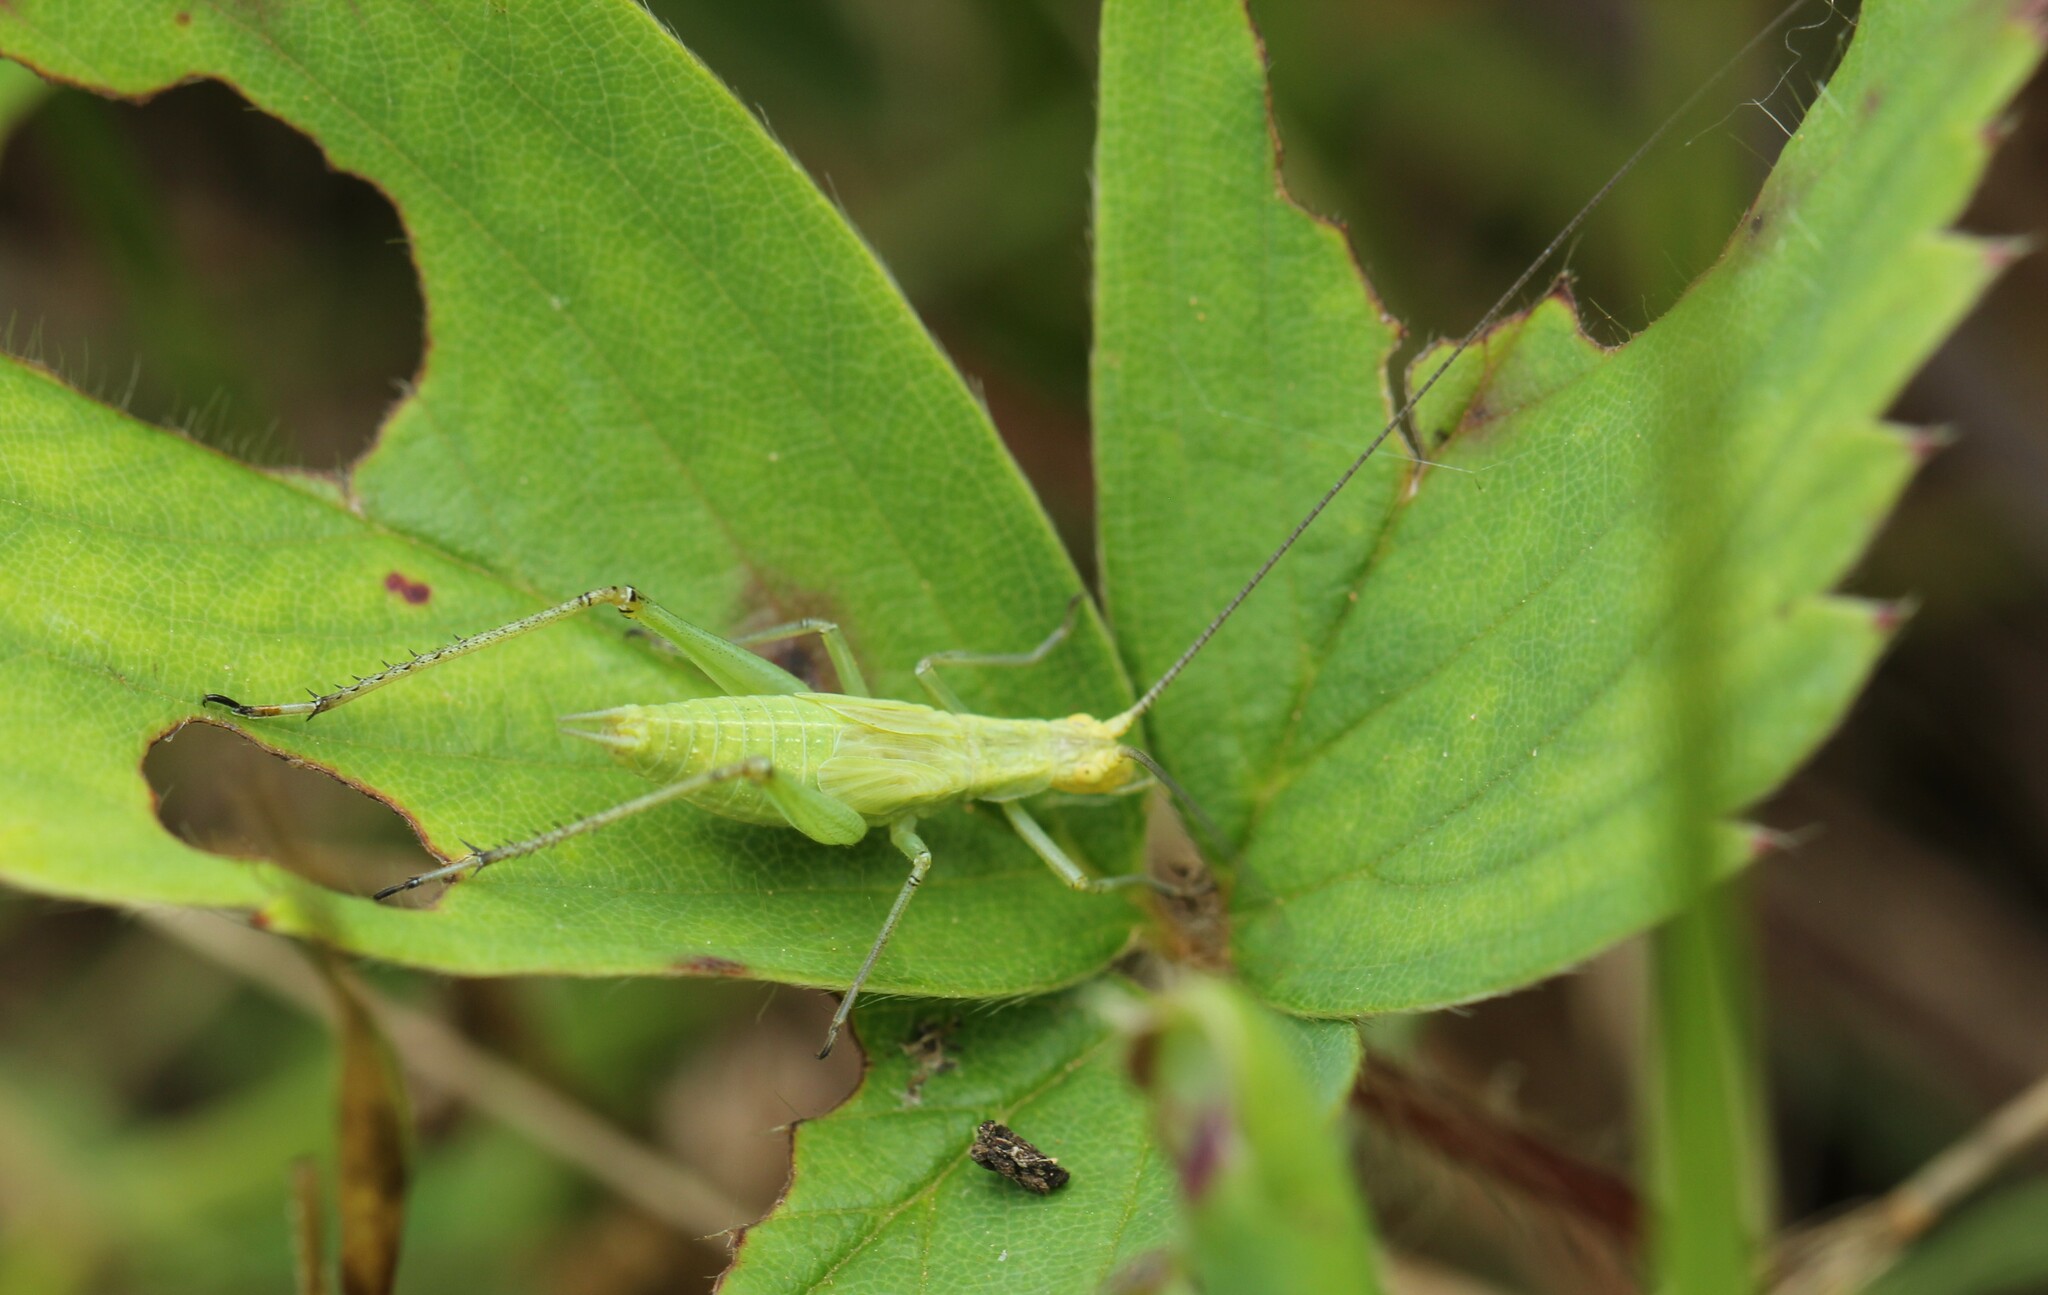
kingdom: Animalia
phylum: Arthropoda
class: Insecta
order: Orthoptera
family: Gryllidae
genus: Oecanthus
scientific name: Oecanthus nigricornis
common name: Black-horned tree cricket
